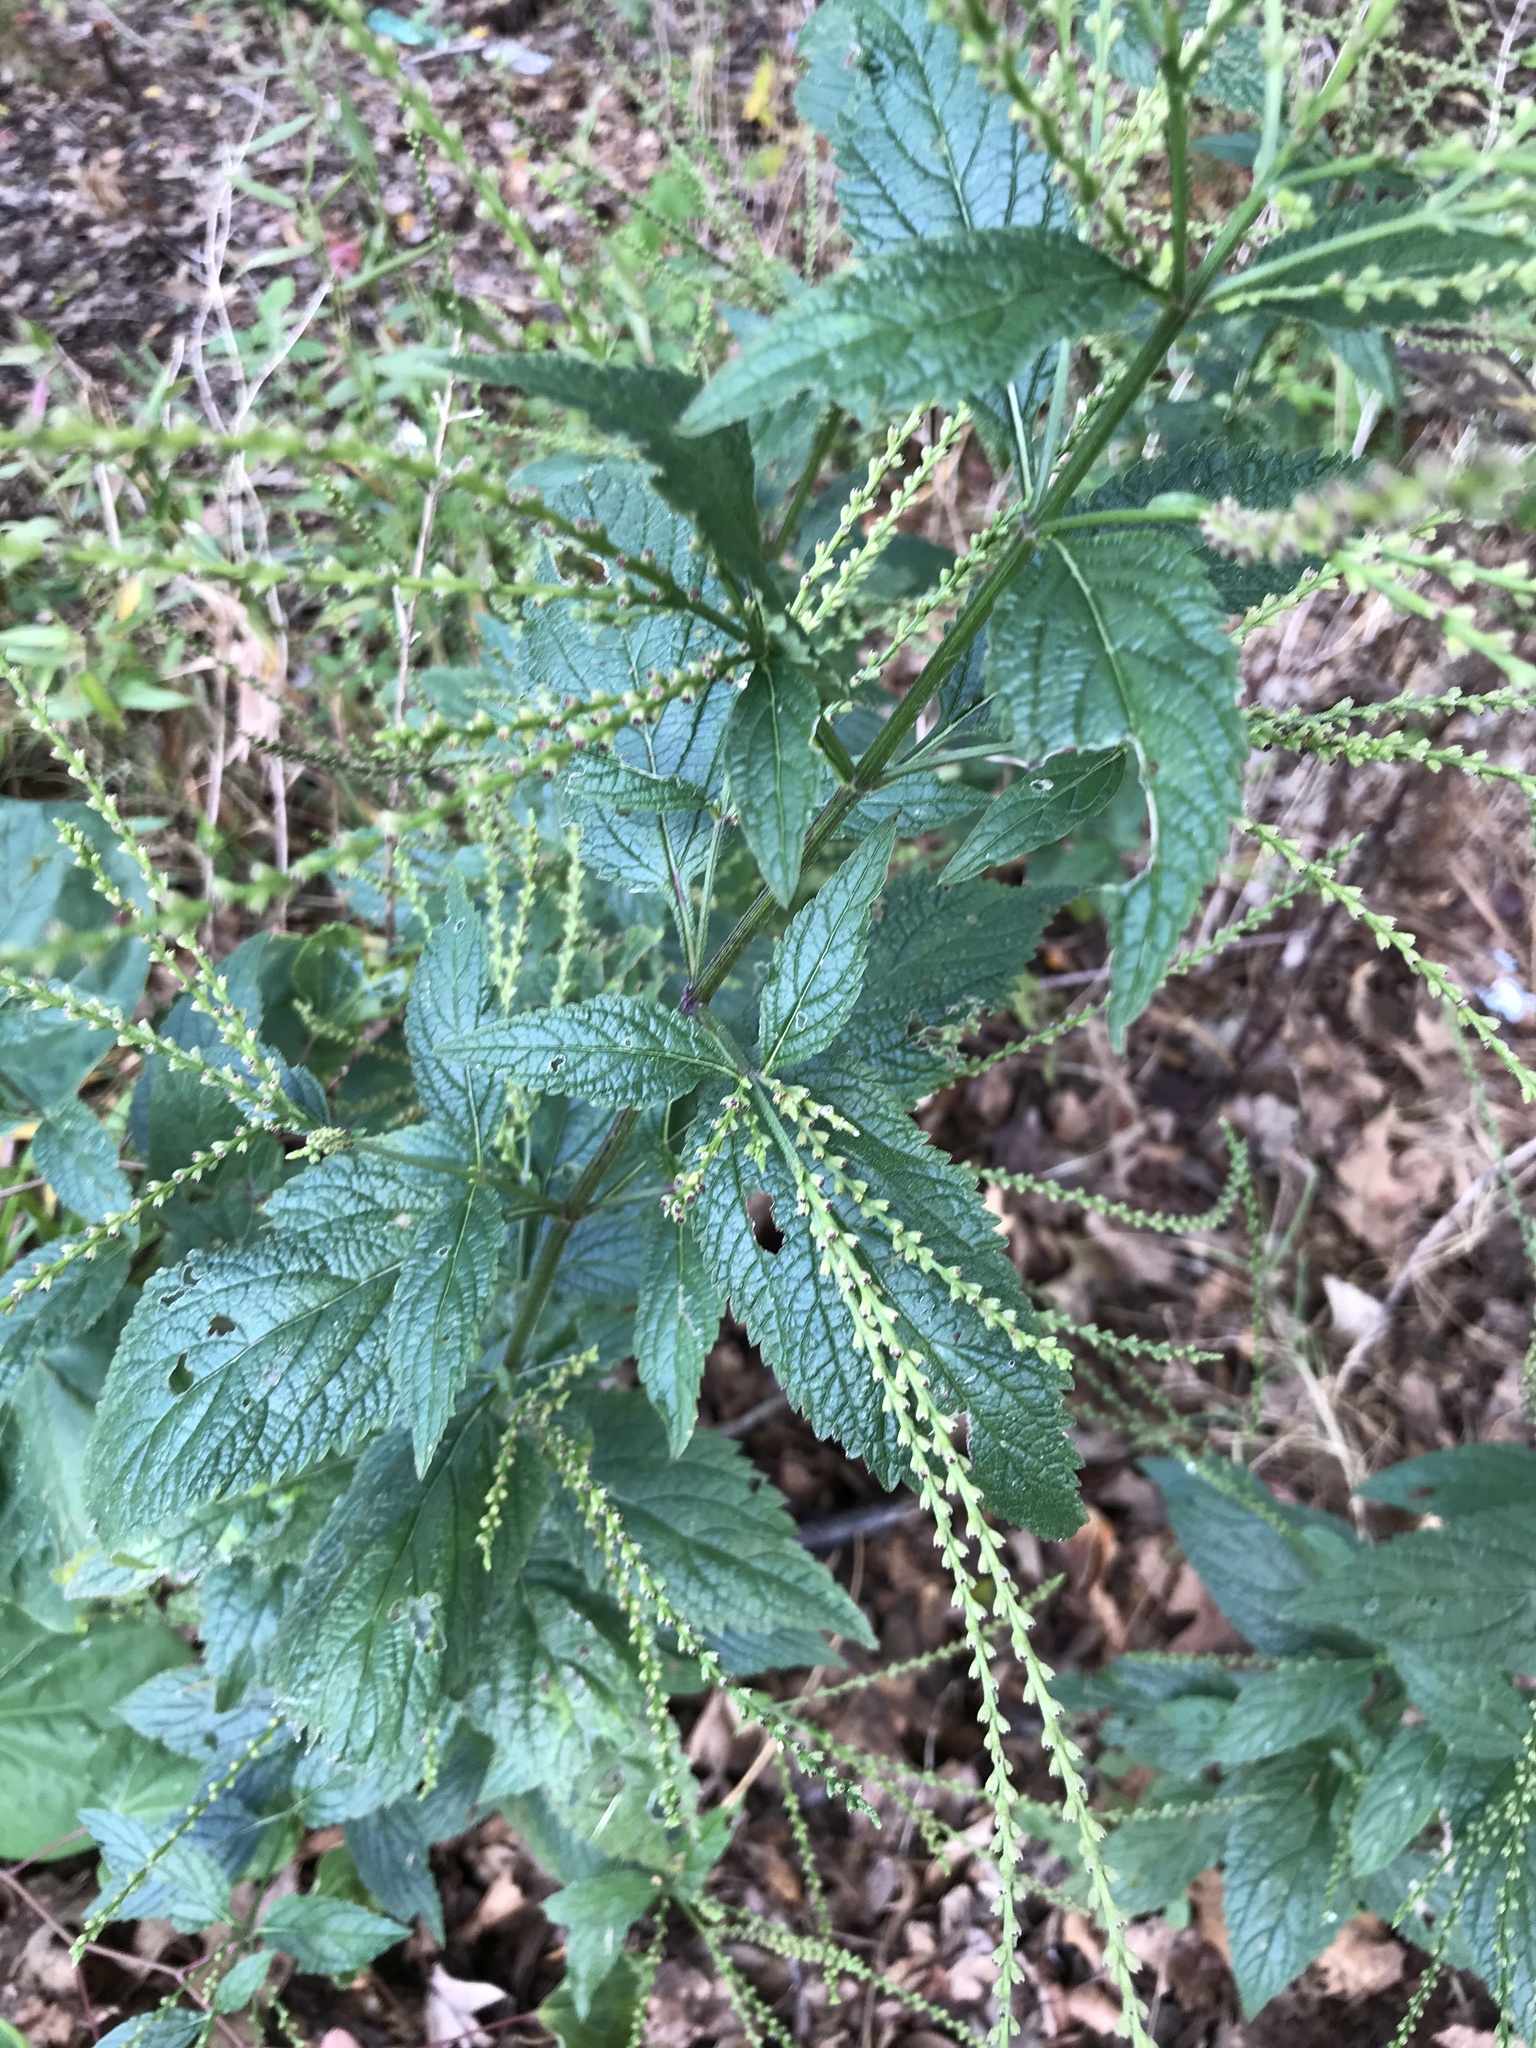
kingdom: Plantae
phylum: Tracheophyta
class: Magnoliopsida
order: Lamiales
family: Verbenaceae
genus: Verbena
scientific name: Verbena urticifolia
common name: Nettle-leaved vervain
